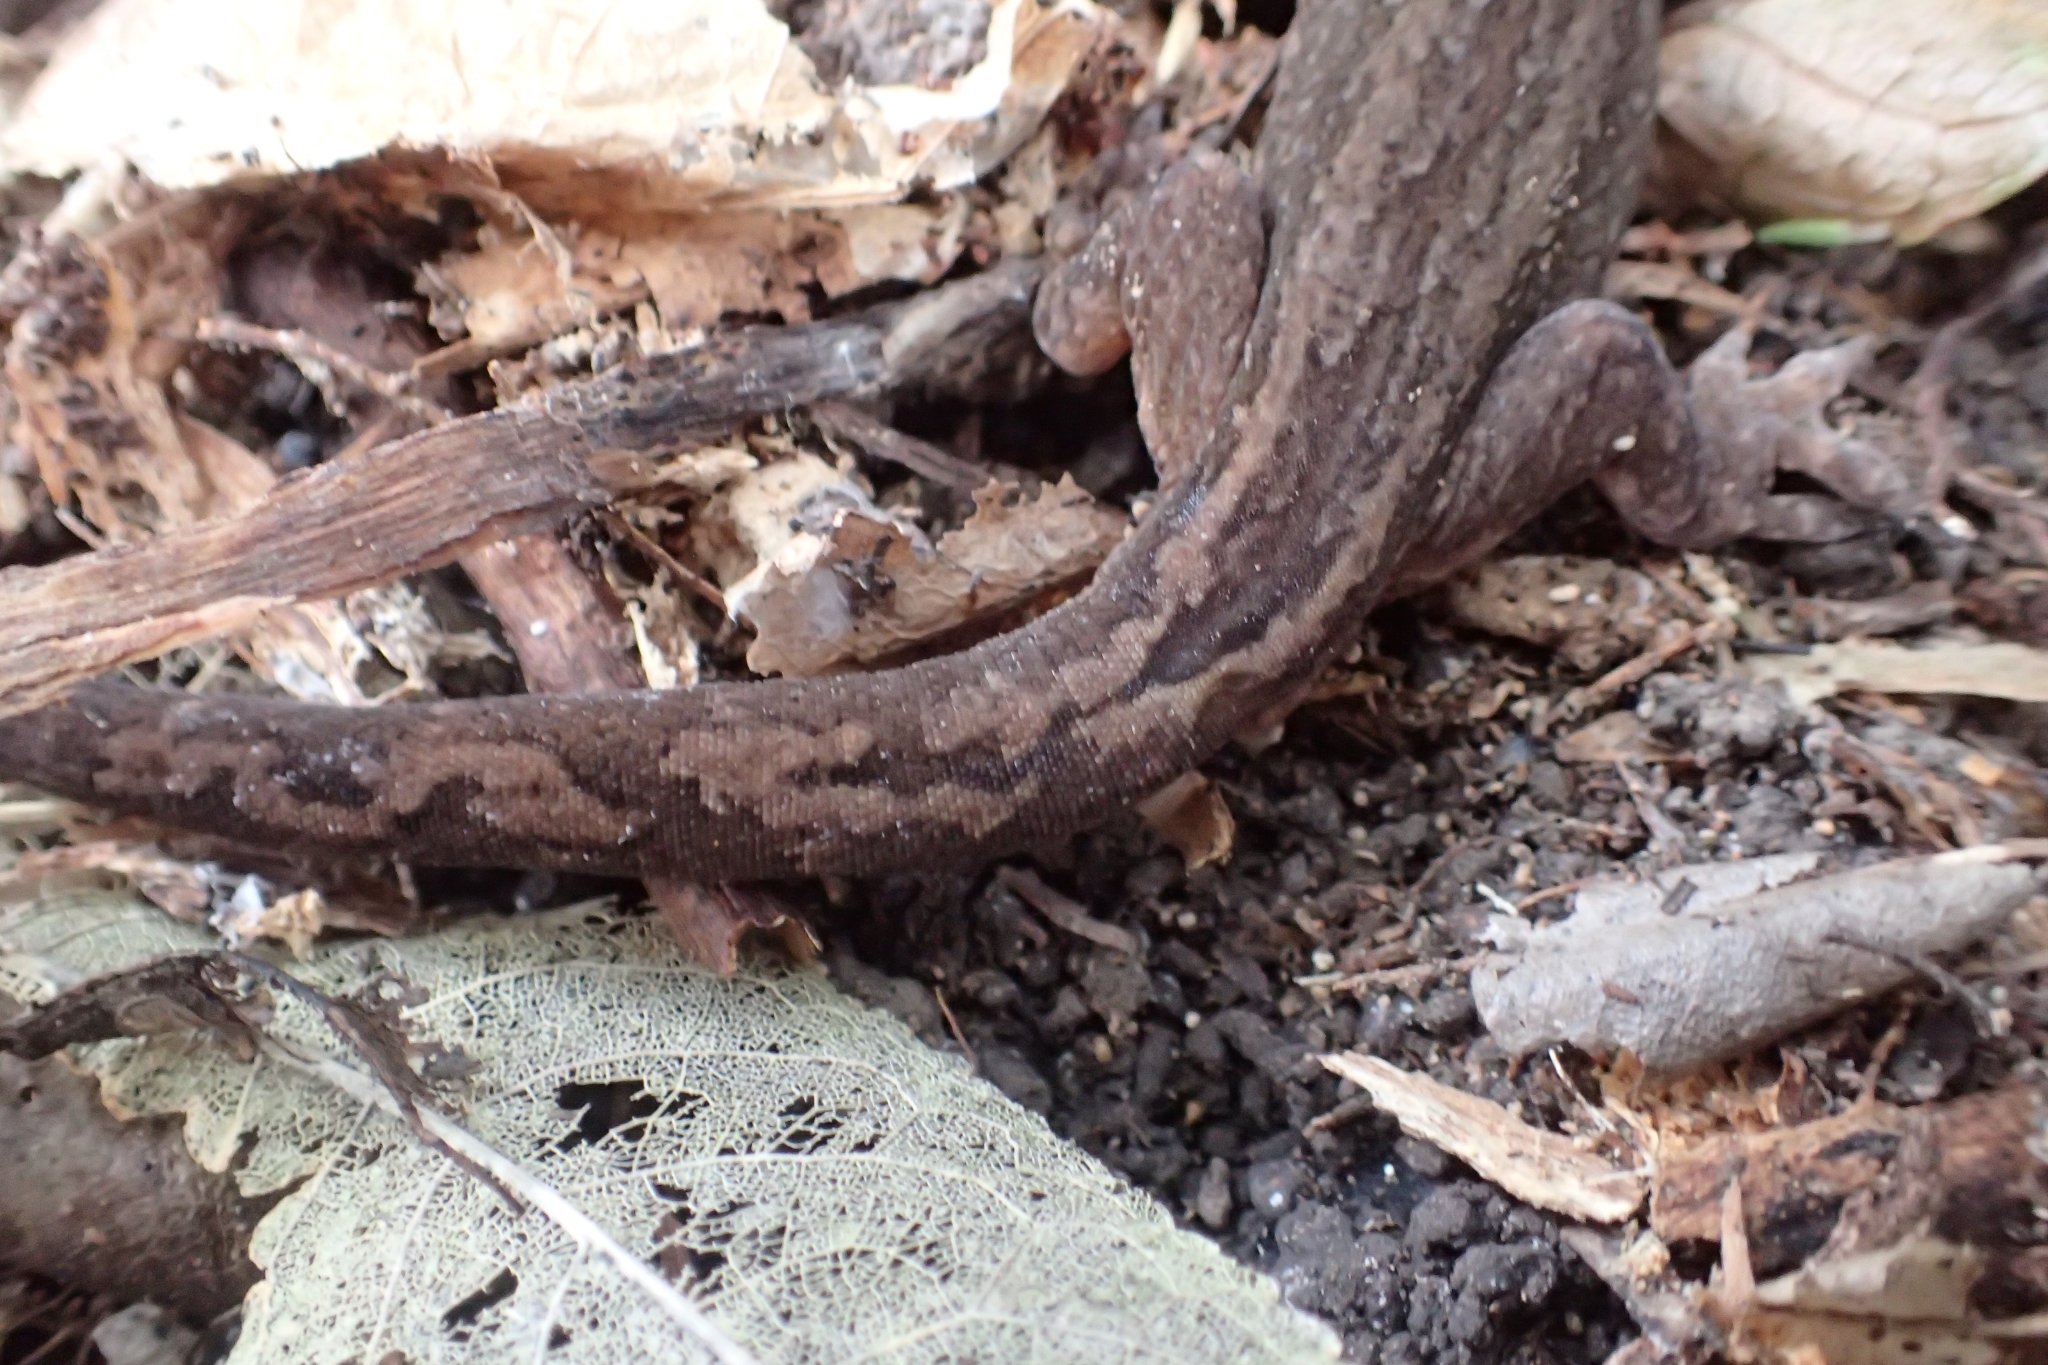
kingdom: Animalia
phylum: Chordata
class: Squamata
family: Diplodactylidae
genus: Dactylocnemis
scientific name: Dactylocnemis pacificus
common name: Pacific gecko
